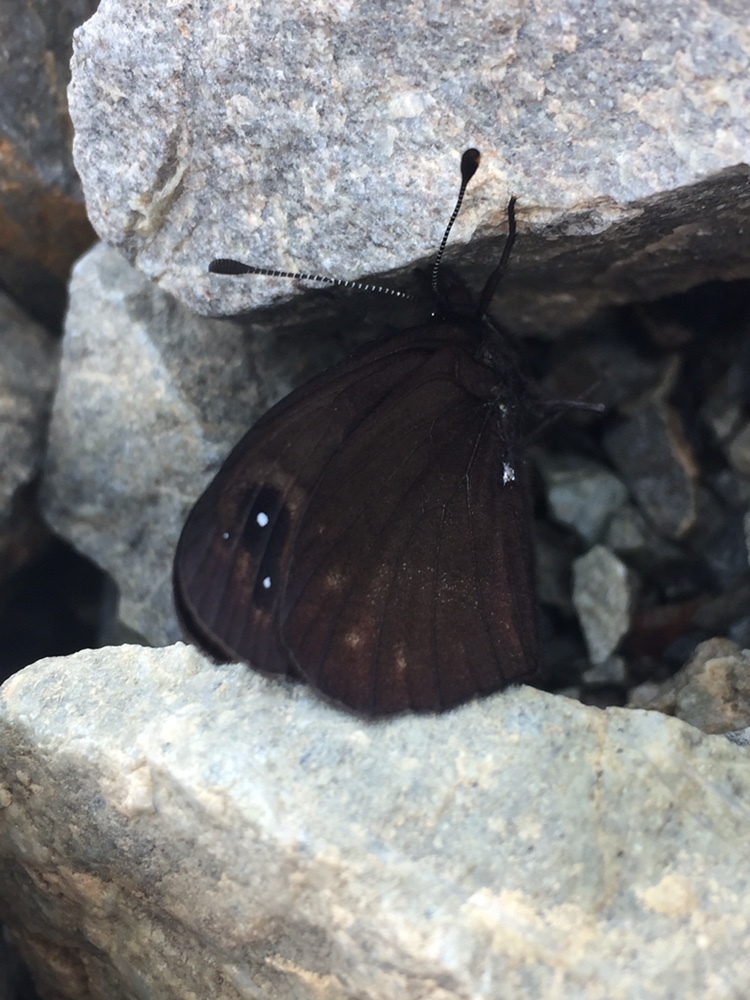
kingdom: Animalia
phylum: Arthropoda
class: Insecta
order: Lepidoptera
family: Nymphalidae
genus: Erebia
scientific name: Erebia Percnodaimon merula
